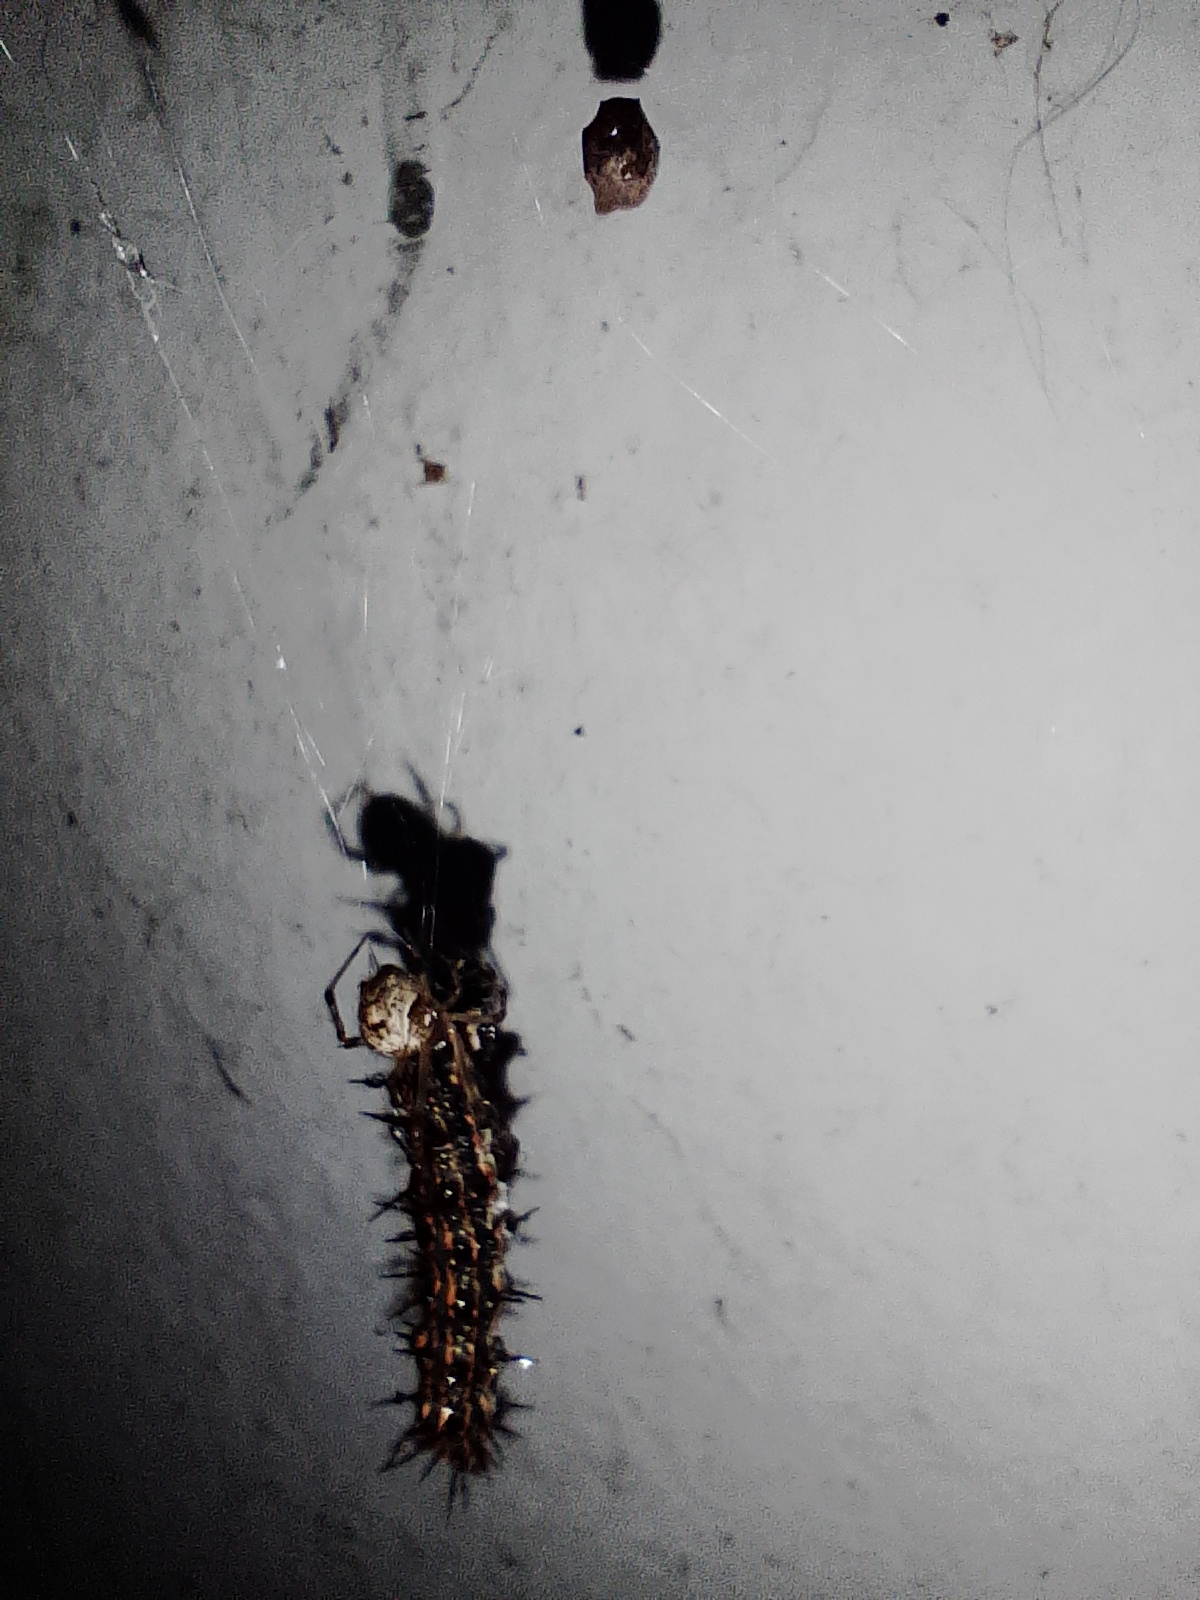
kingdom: Animalia
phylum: Arthropoda
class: Insecta
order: Lepidoptera
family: Nymphalidae
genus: Dione
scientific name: Dione vanillae
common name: Gulf fritillary
